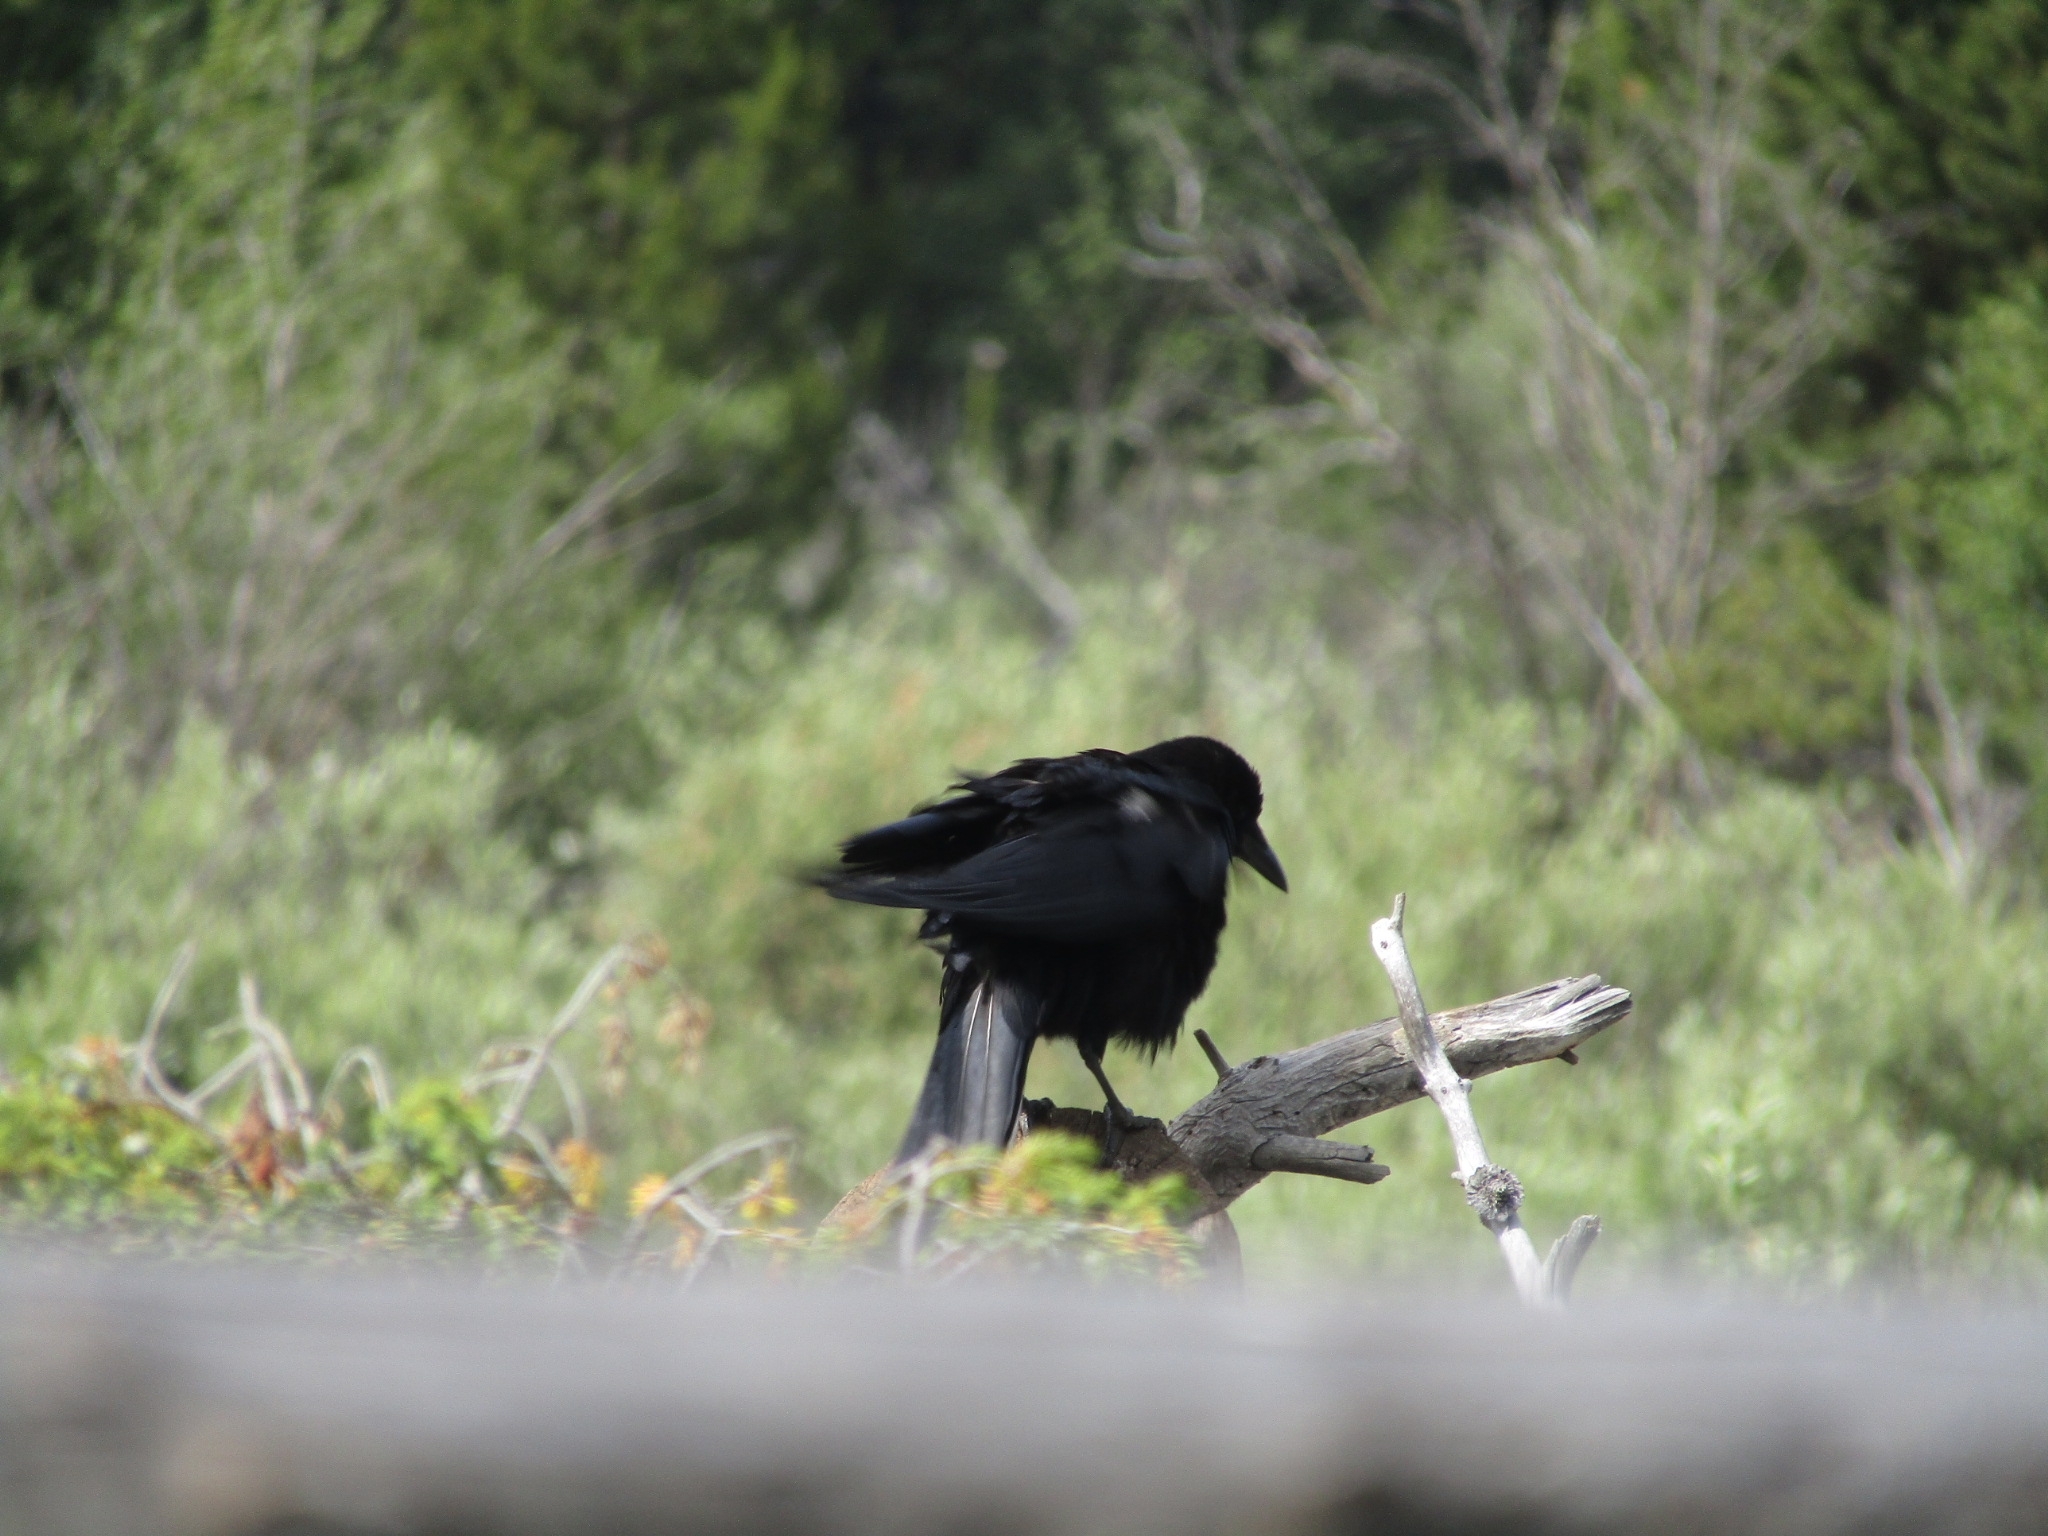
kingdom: Animalia
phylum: Chordata
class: Aves
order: Passeriformes
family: Corvidae
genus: Corvus
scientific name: Corvus corax
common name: Common raven
